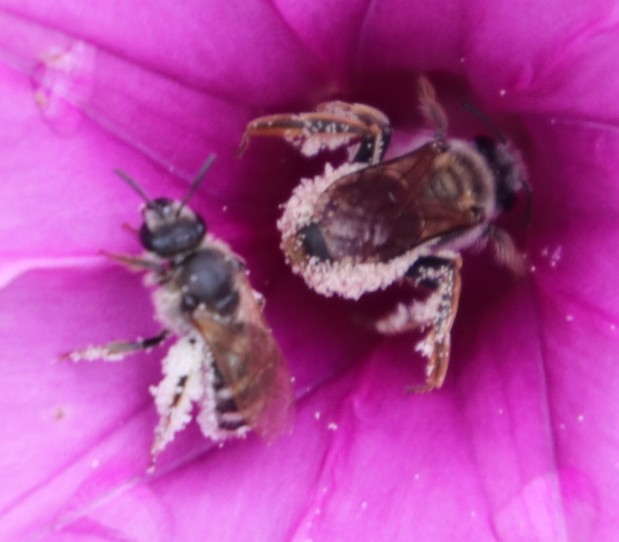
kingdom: Plantae
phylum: Tracheophyta
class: Magnoliopsida
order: Solanales
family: Convolvulaceae
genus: Ipomoea
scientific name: Ipomoea ommanneyi
